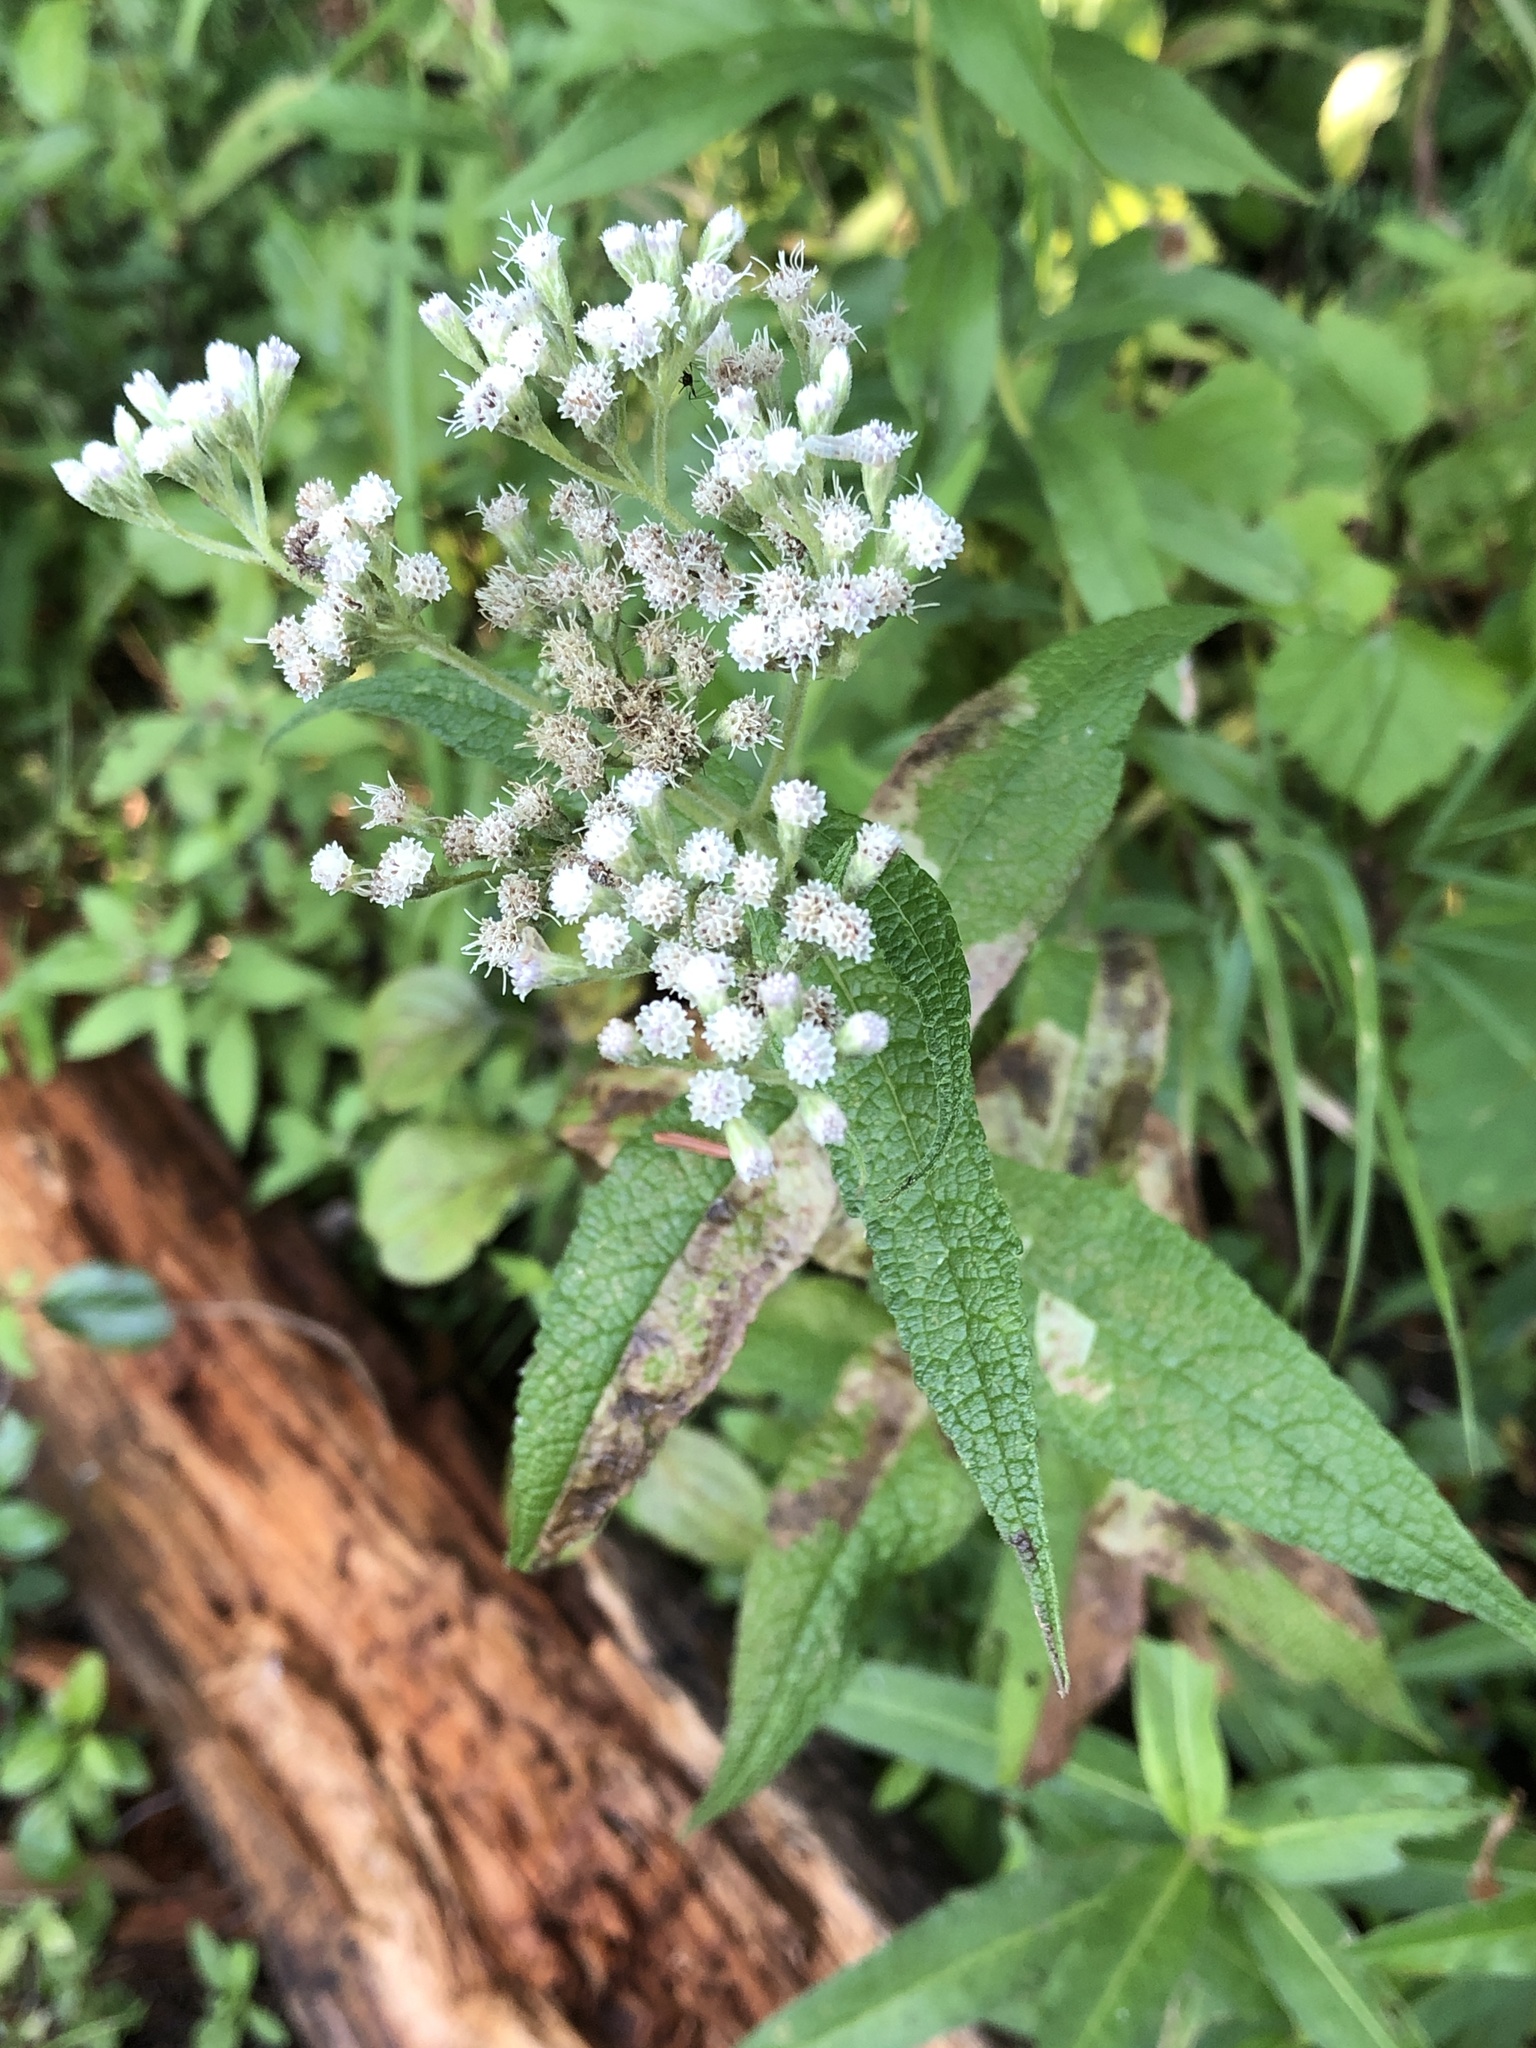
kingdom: Plantae
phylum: Tracheophyta
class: Magnoliopsida
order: Asterales
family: Asteraceae
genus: Eupatorium
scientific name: Eupatorium perfoliatum
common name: Boneset
